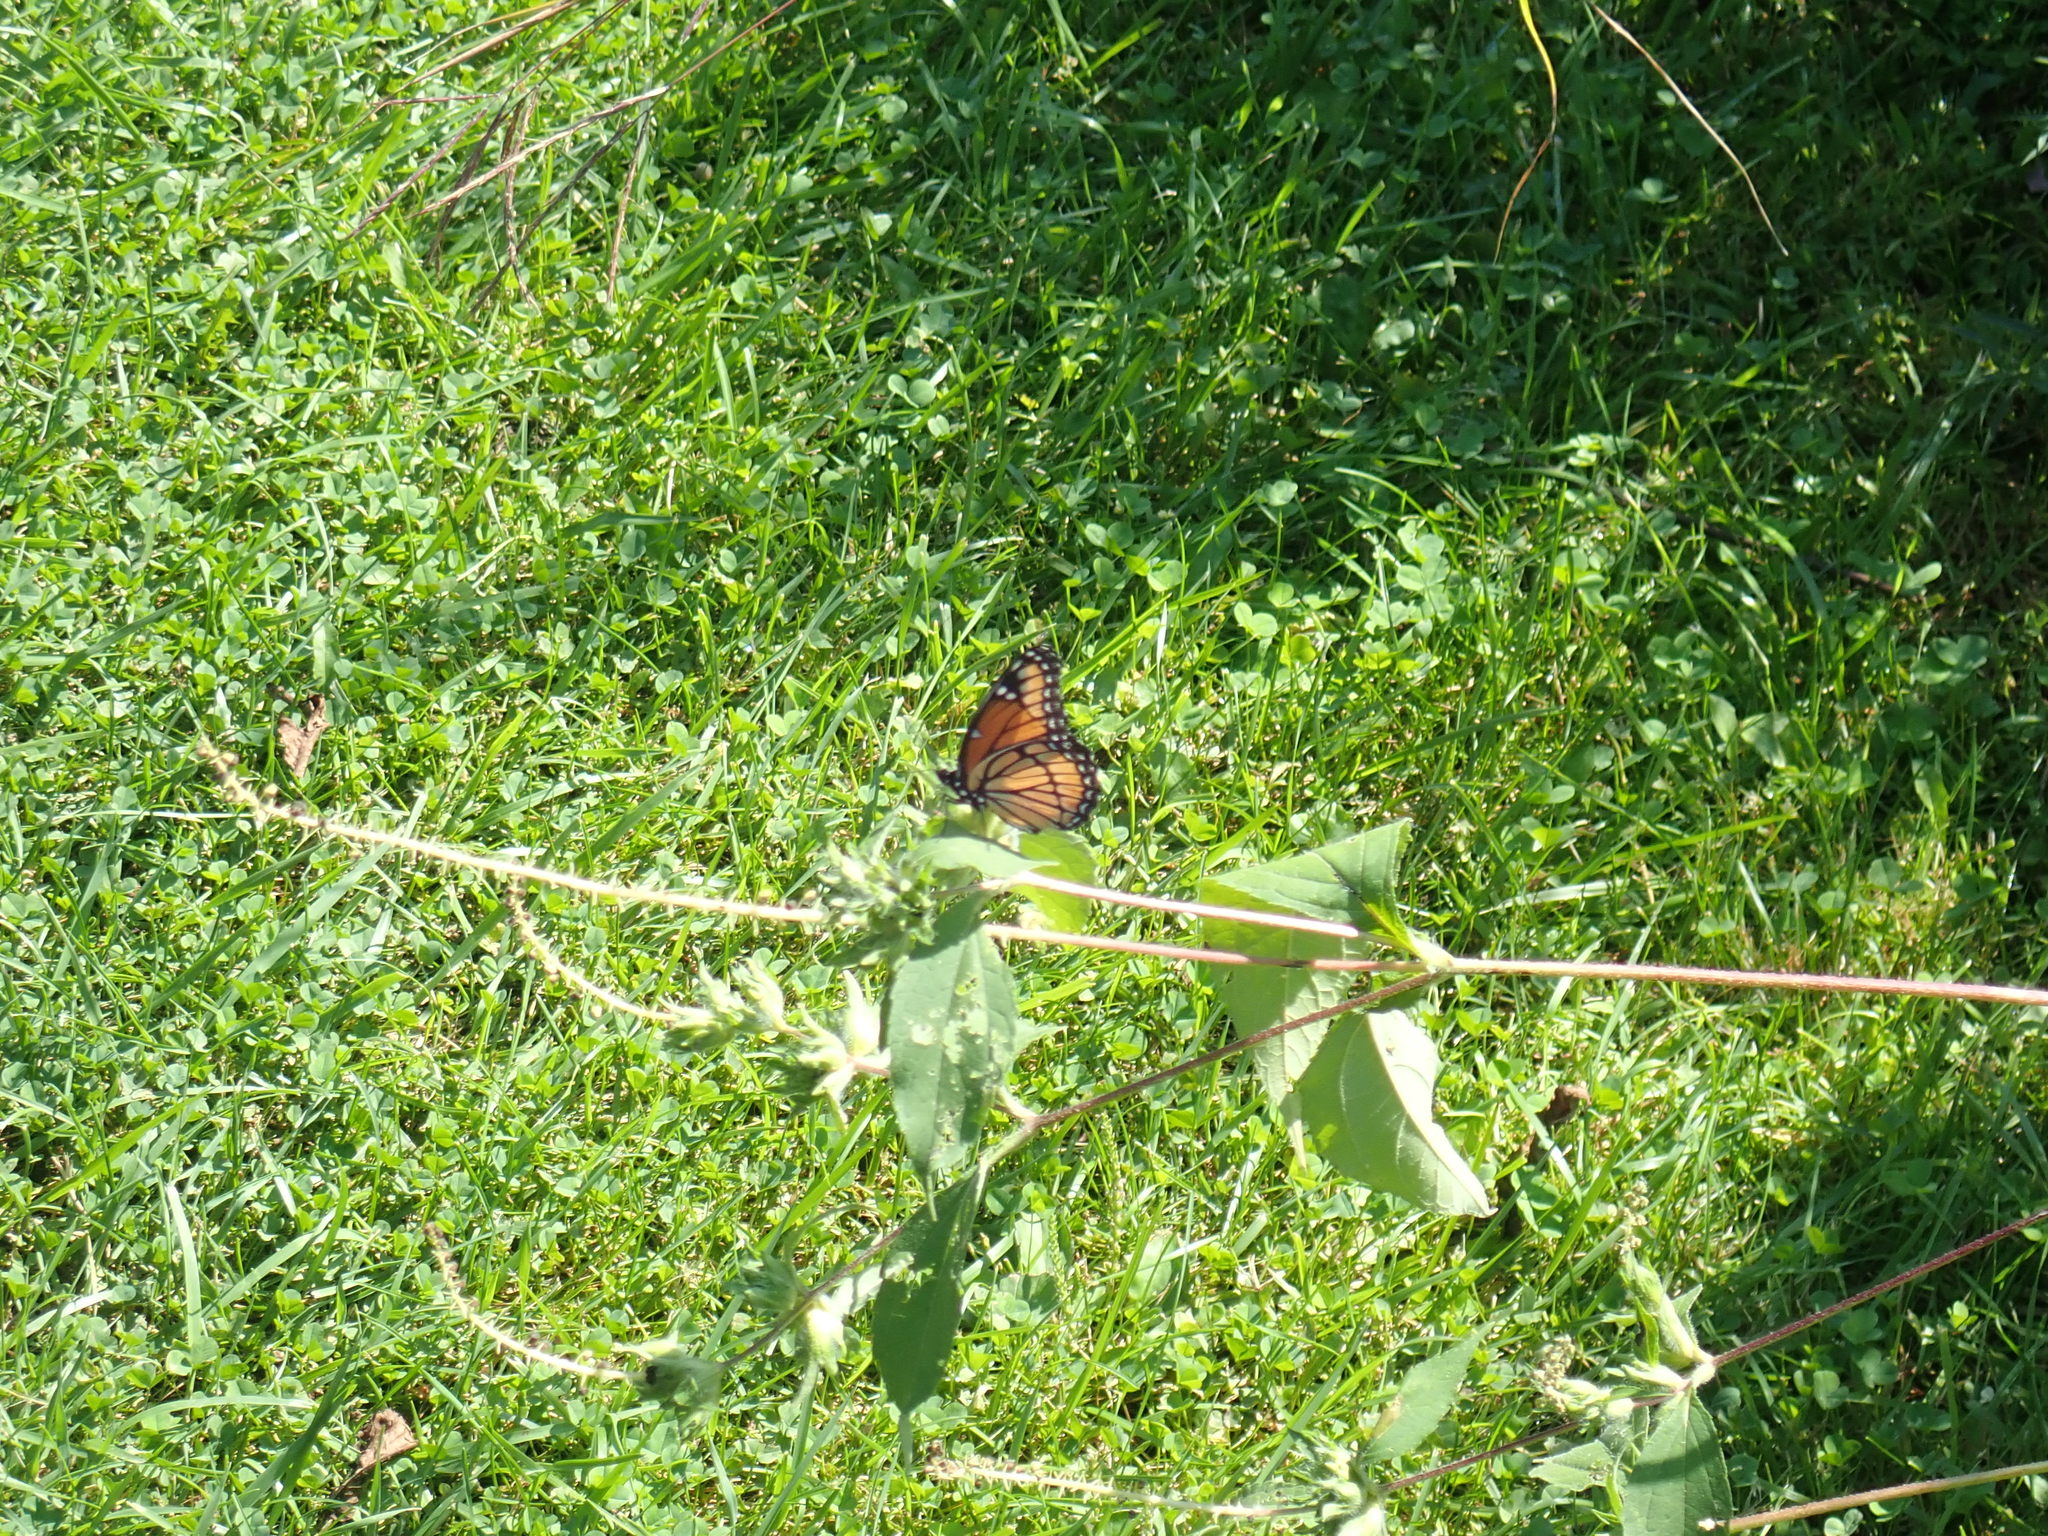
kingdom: Animalia
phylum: Arthropoda
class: Insecta
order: Lepidoptera
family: Nymphalidae
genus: Limenitis
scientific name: Limenitis archippus
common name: Viceroy
